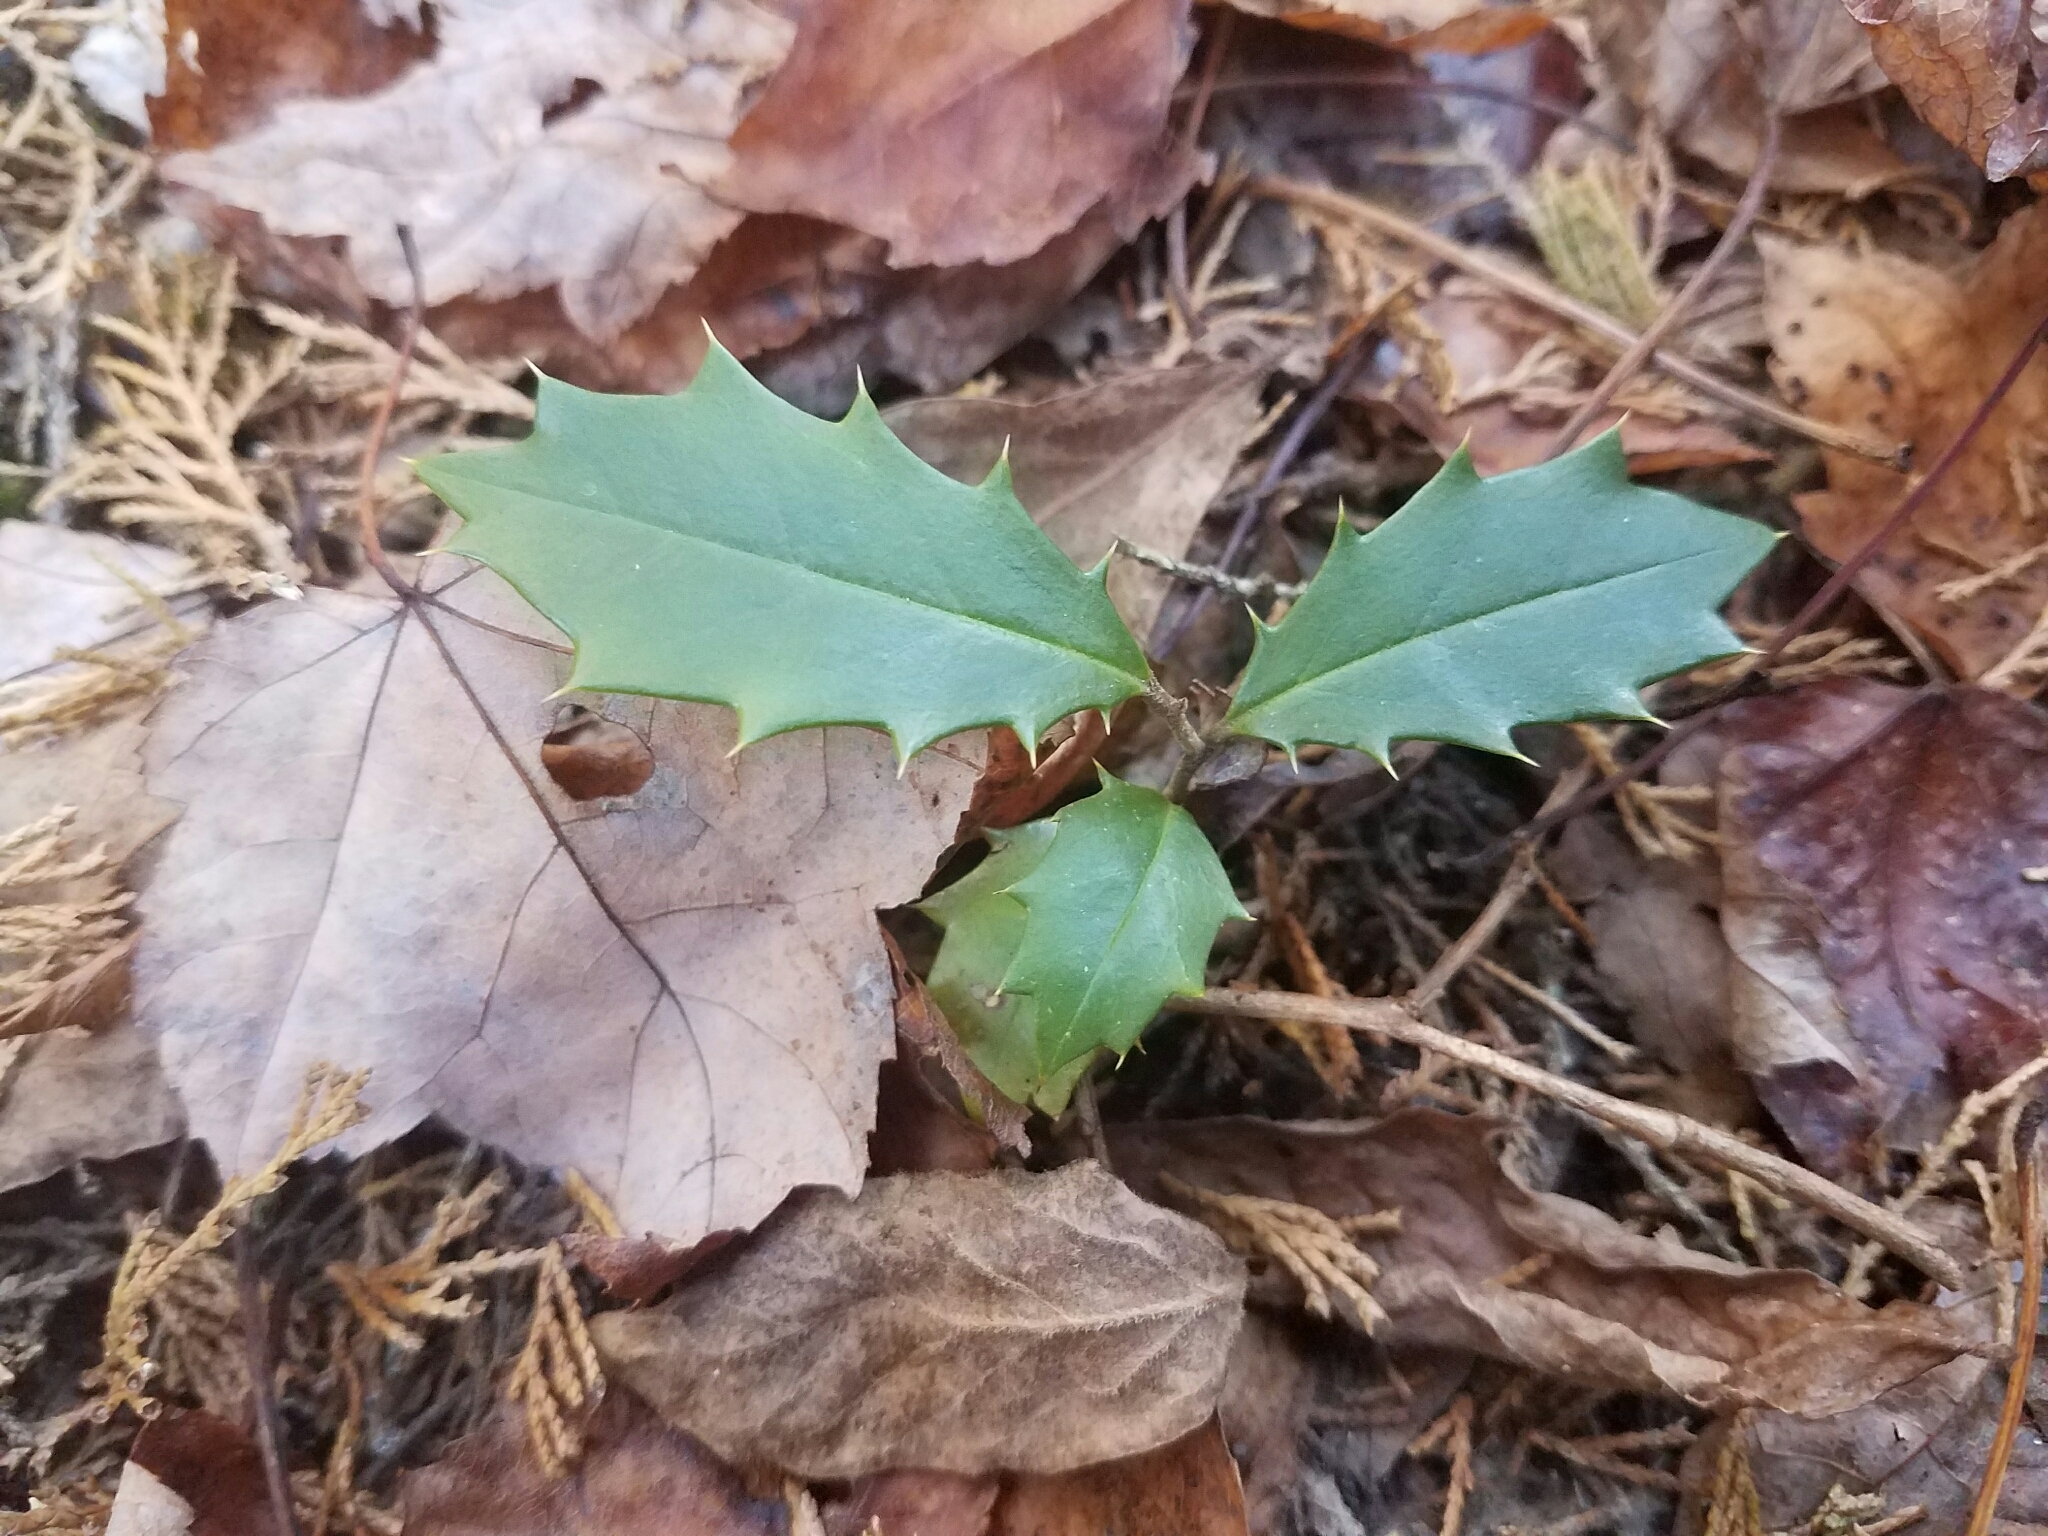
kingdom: Plantae
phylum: Tracheophyta
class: Magnoliopsida
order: Aquifoliales
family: Aquifoliaceae
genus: Ilex
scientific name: Ilex opaca
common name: American holly
